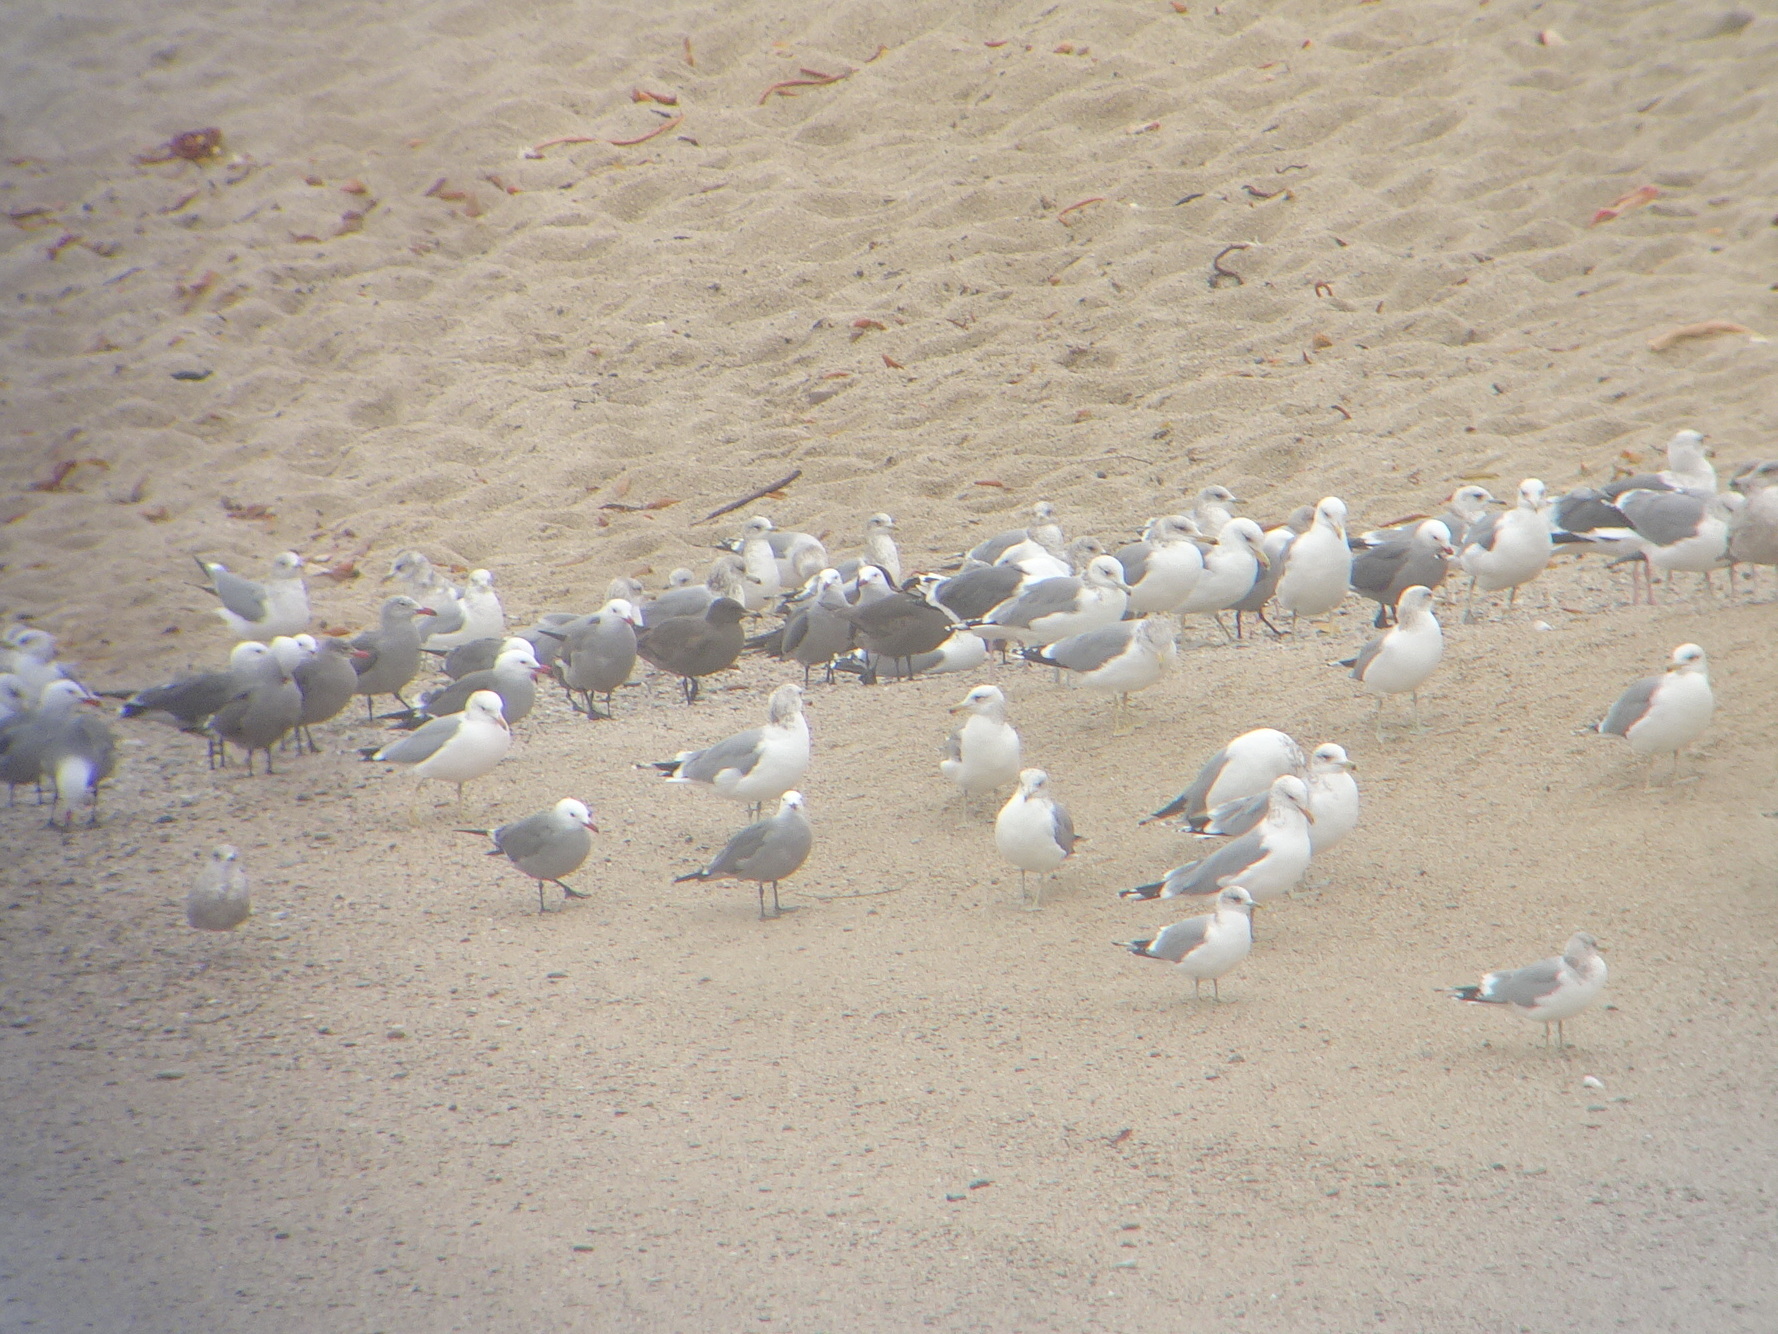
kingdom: Animalia
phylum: Chordata
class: Aves
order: Charadriiformes
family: Laridae
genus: Larus
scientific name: Larus heermanni
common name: Heermann's gull
